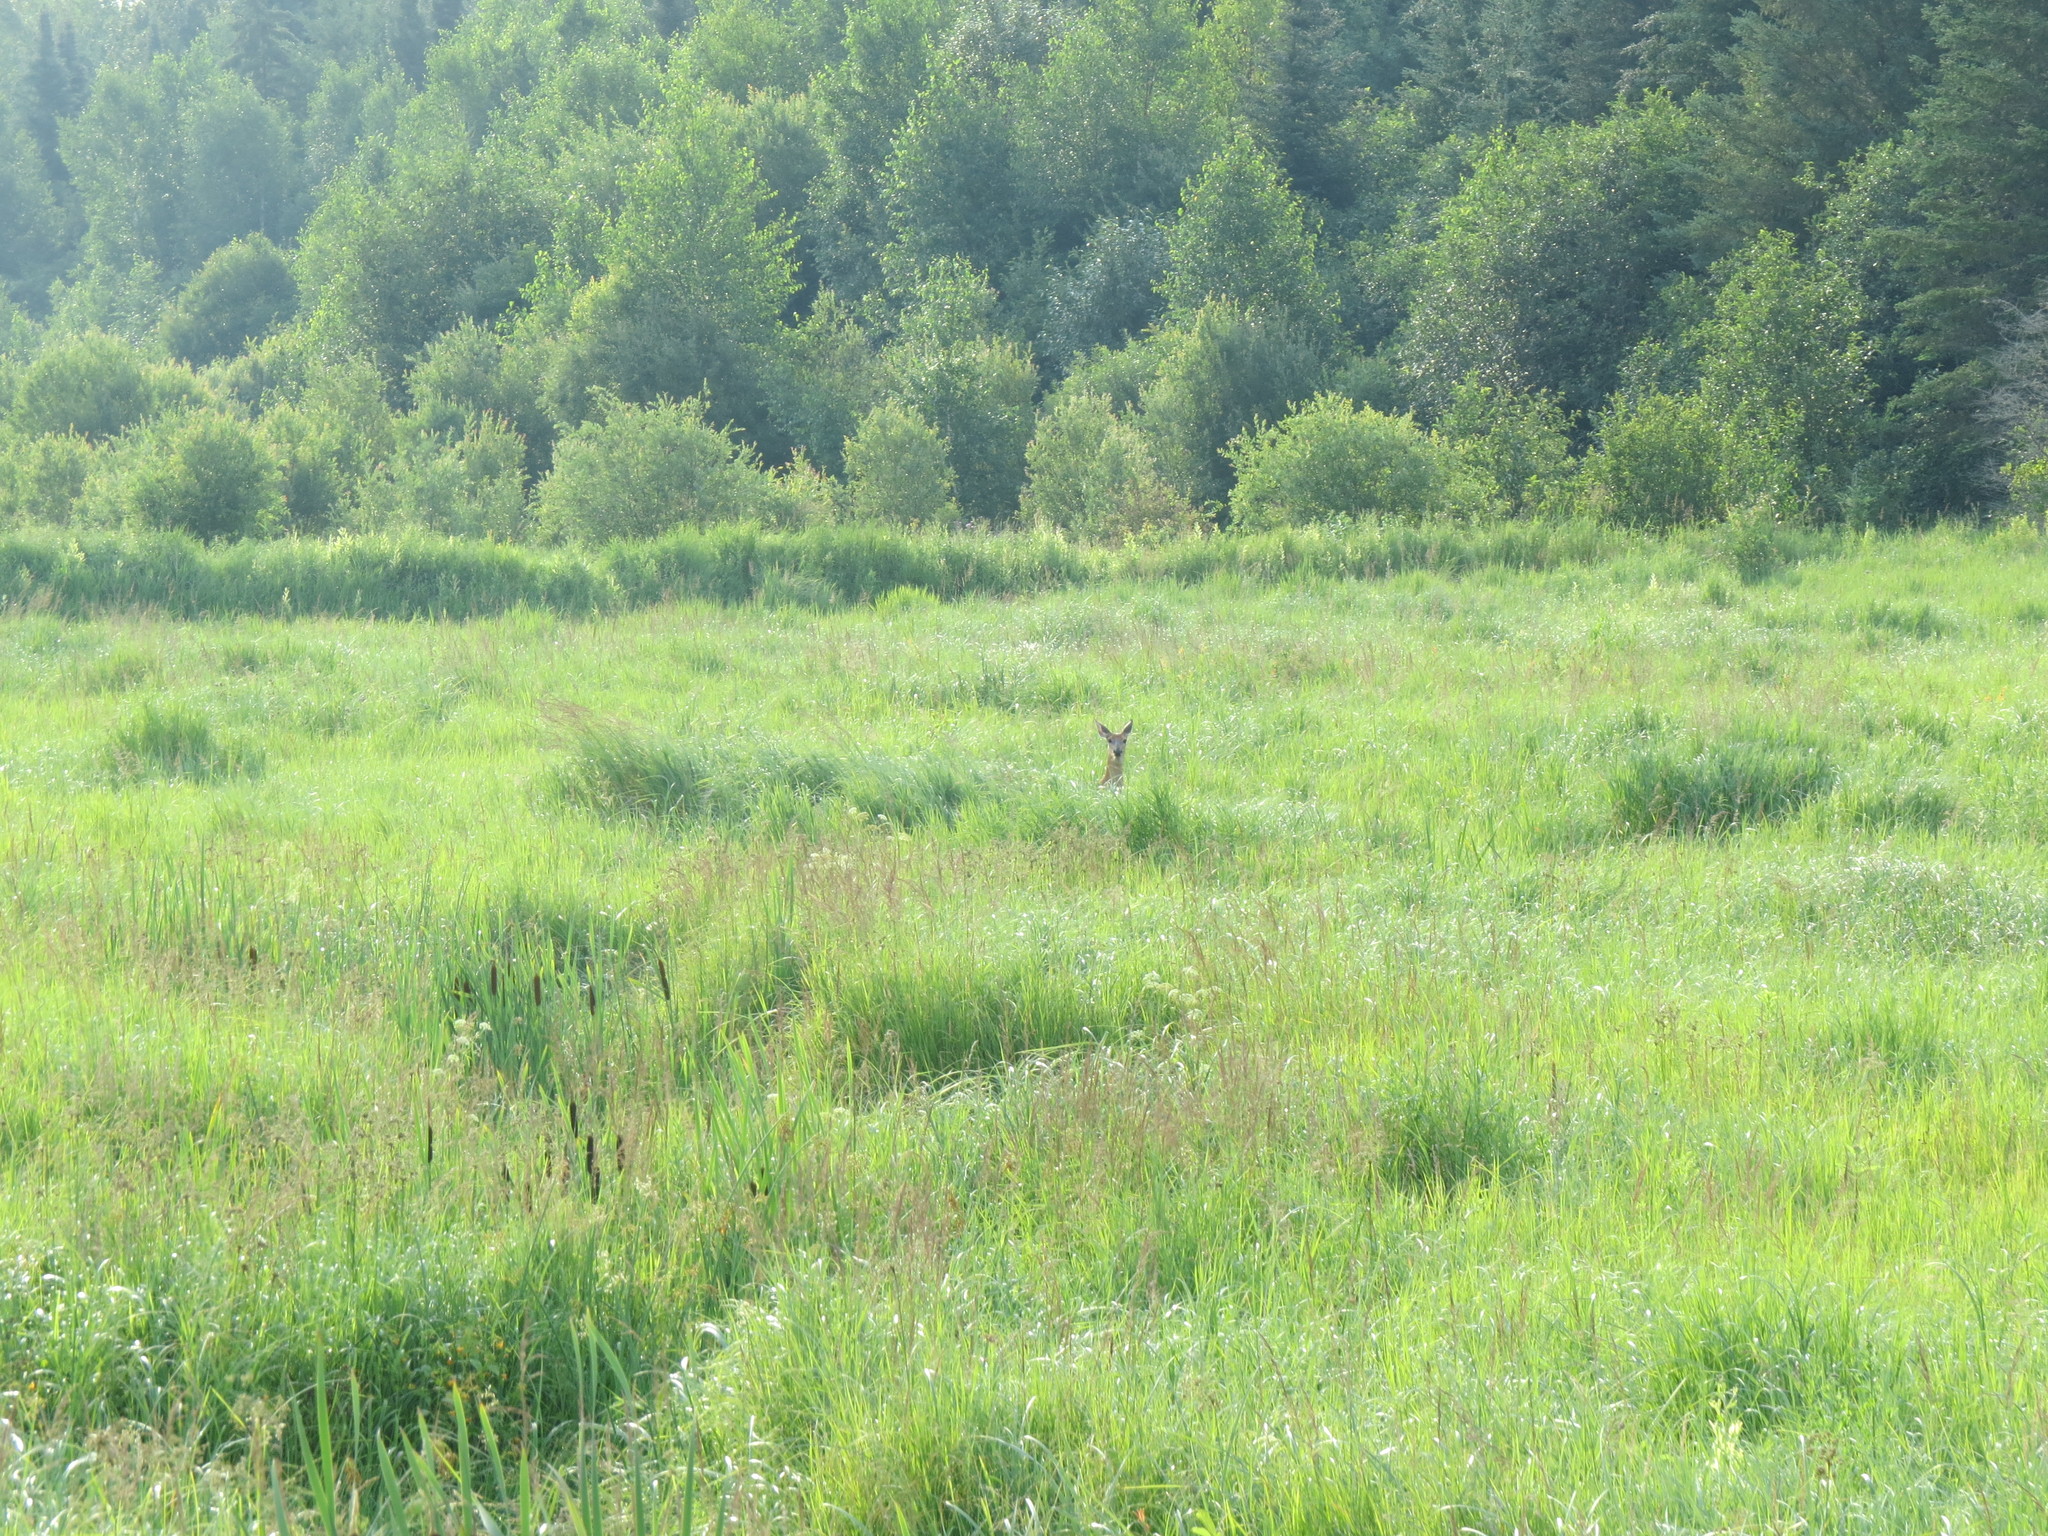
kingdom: Animalia
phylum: Chordata
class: Mammalia
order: Artiodactyla
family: Cervidae
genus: Odocoileus
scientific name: Odocoileus virginianus
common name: White-tailed deer
